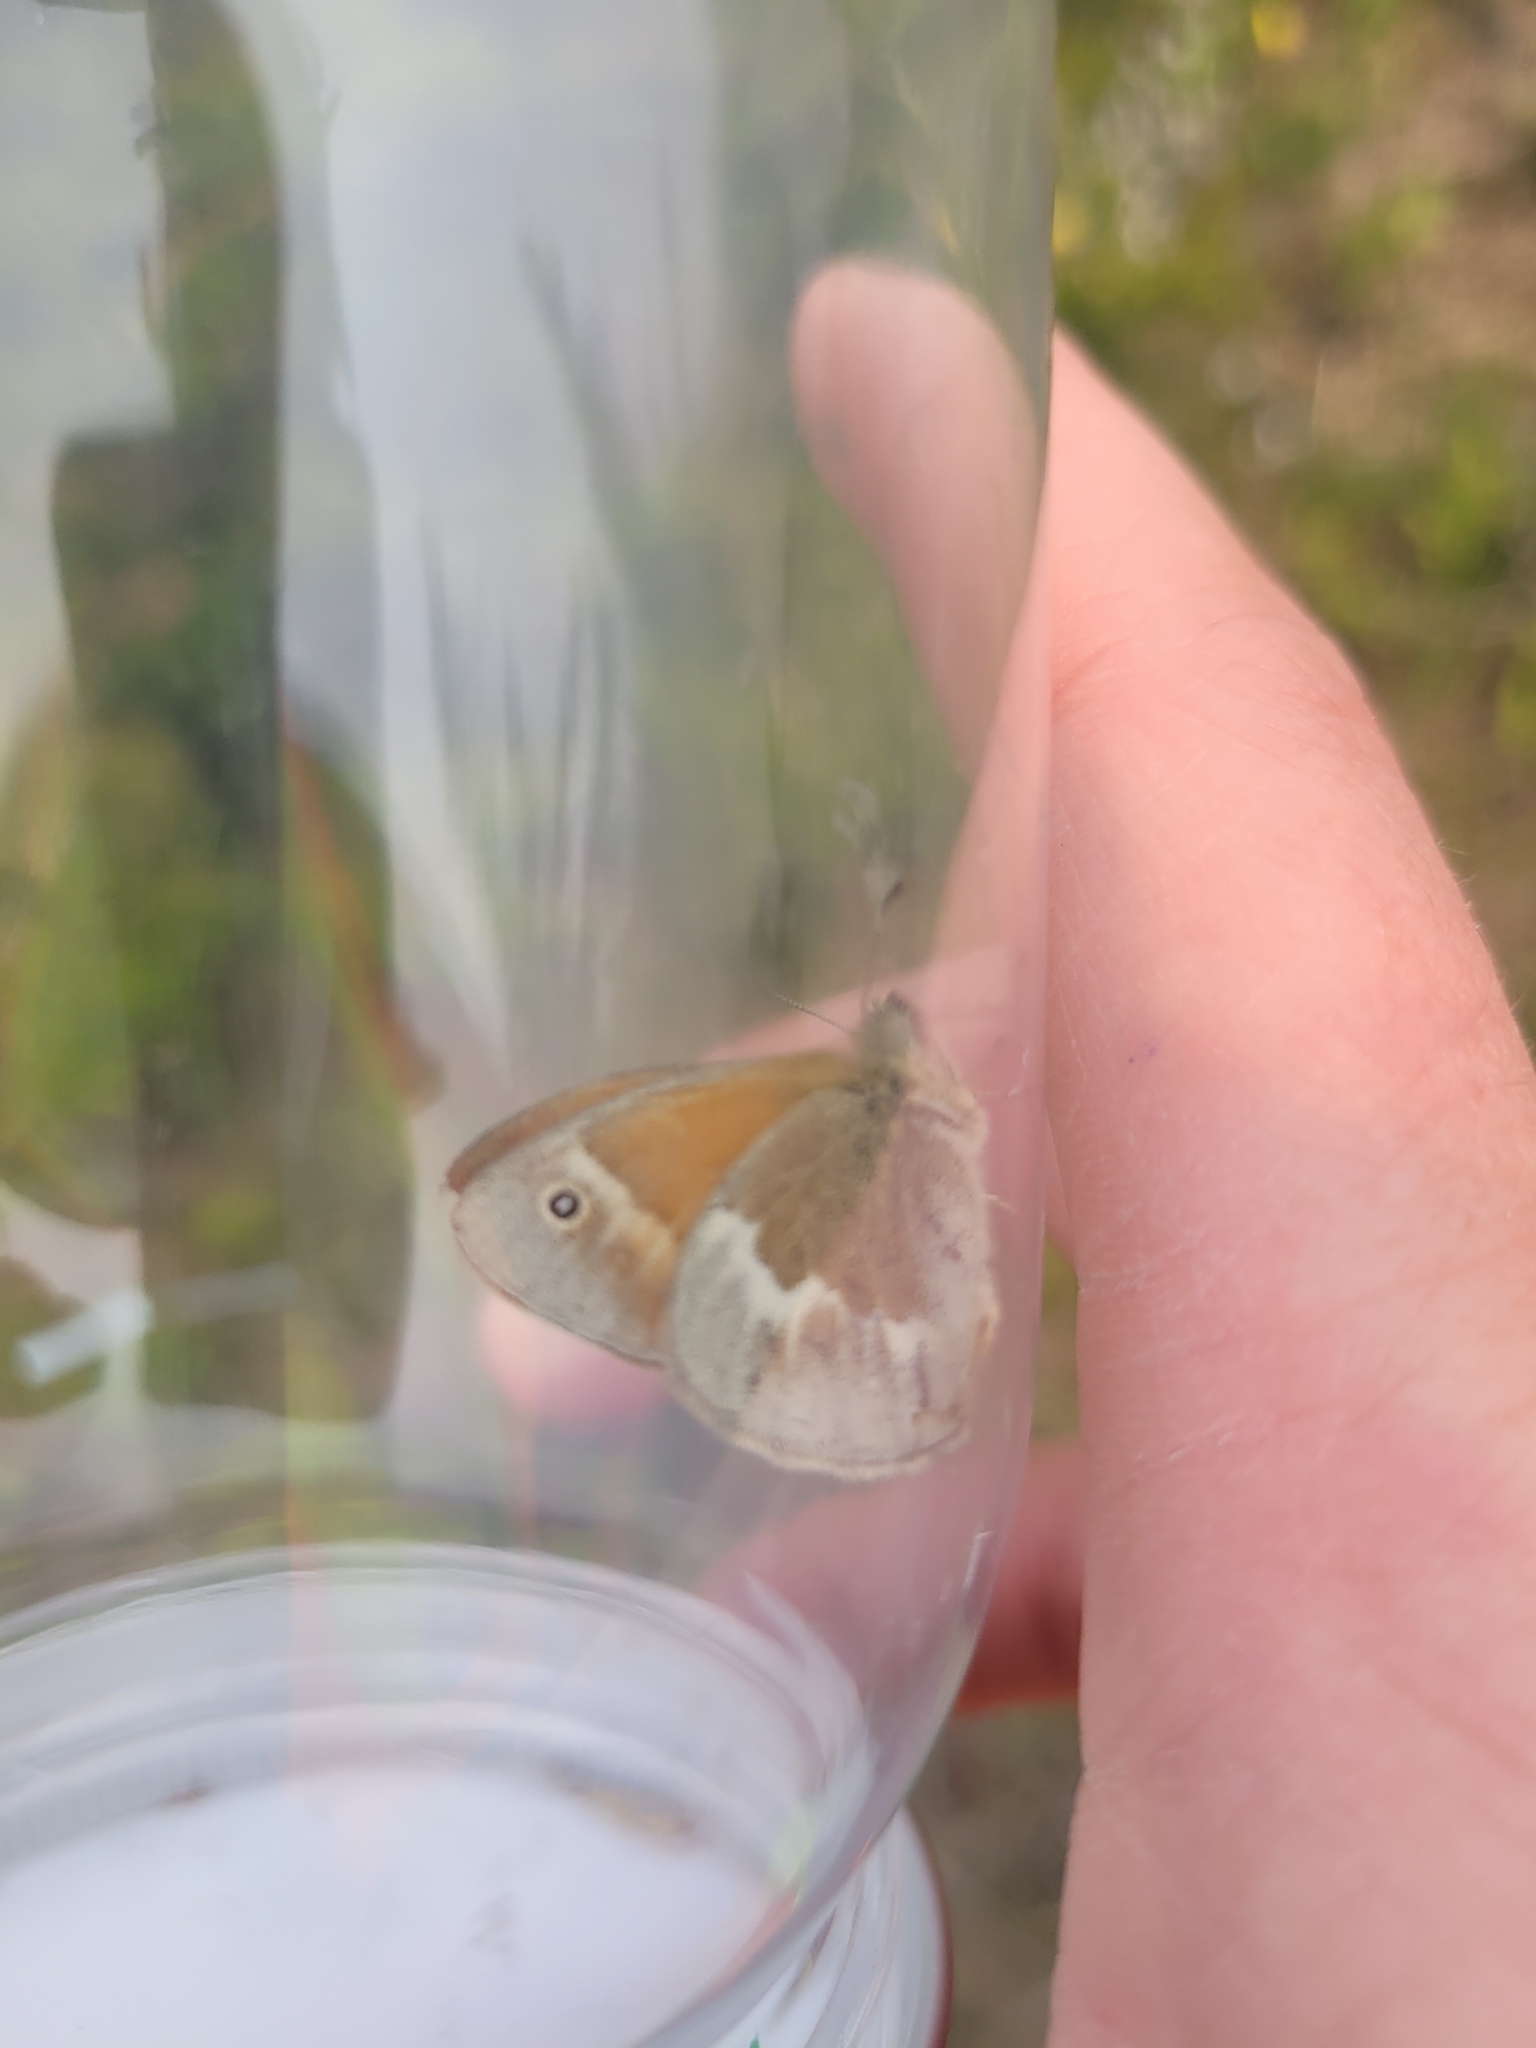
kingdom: Animalia
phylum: Arthropoda
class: Insecta
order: Lepidoptera
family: Nymphalidae
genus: Coenonympha
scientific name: Coenonympha california
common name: Common ringlet
